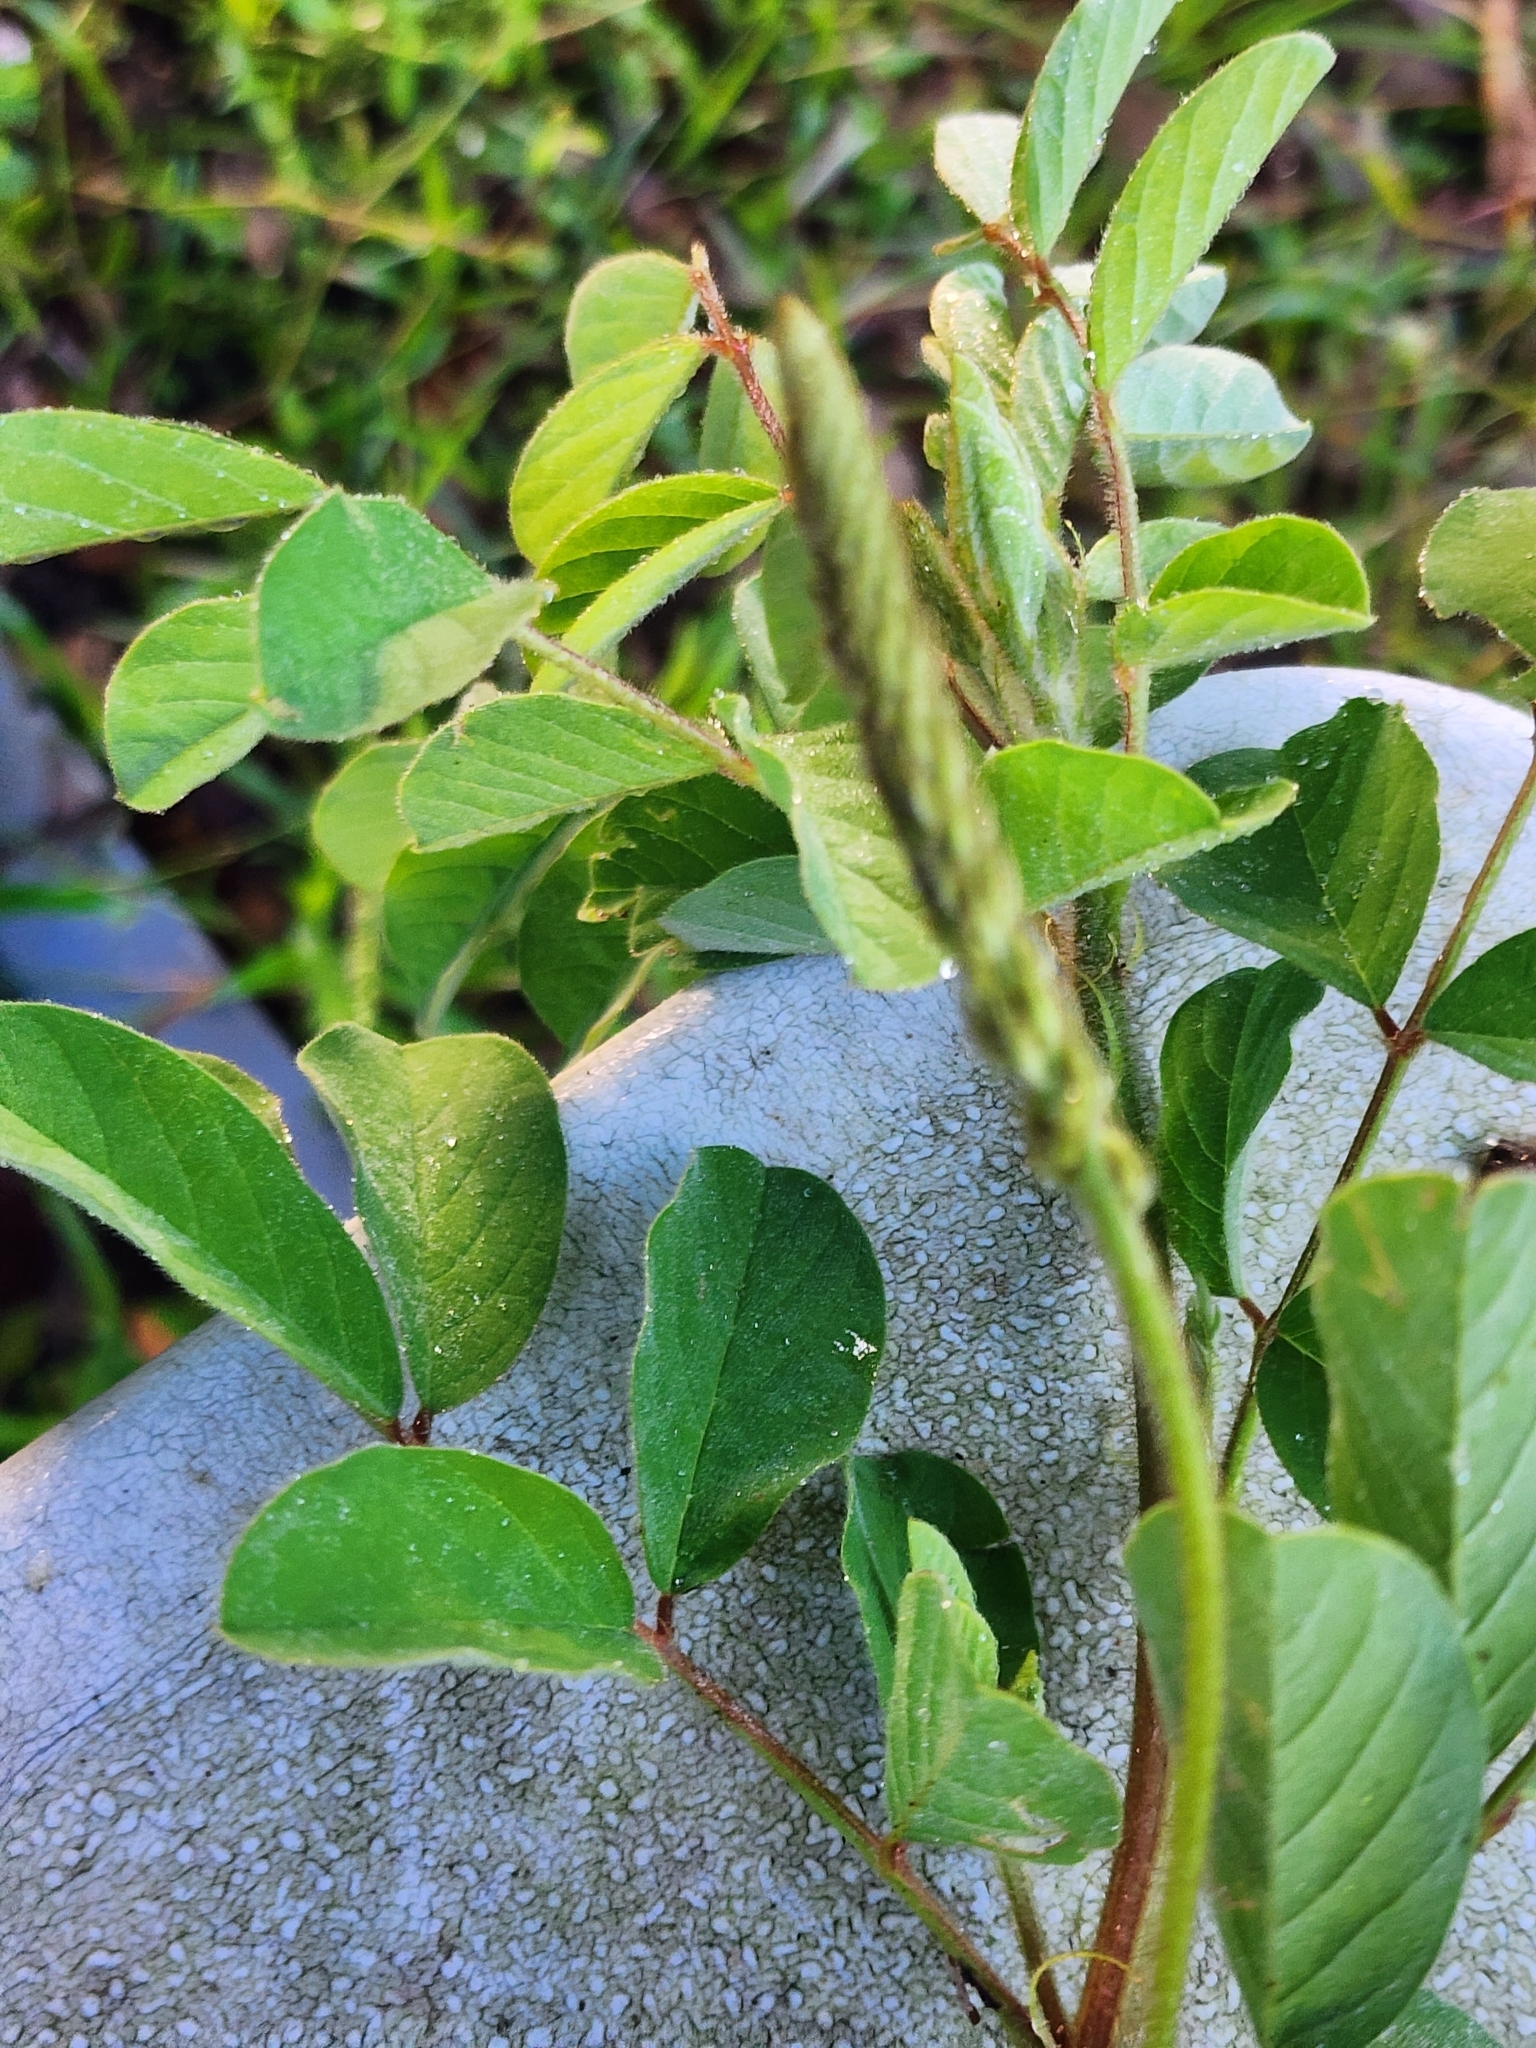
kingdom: Plantae
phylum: Tracheophyta
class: Magnoliopsida
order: Fabales
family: Fabaceae
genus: Indigofera
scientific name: Indigofera hirsuta
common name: Hairy indigo
